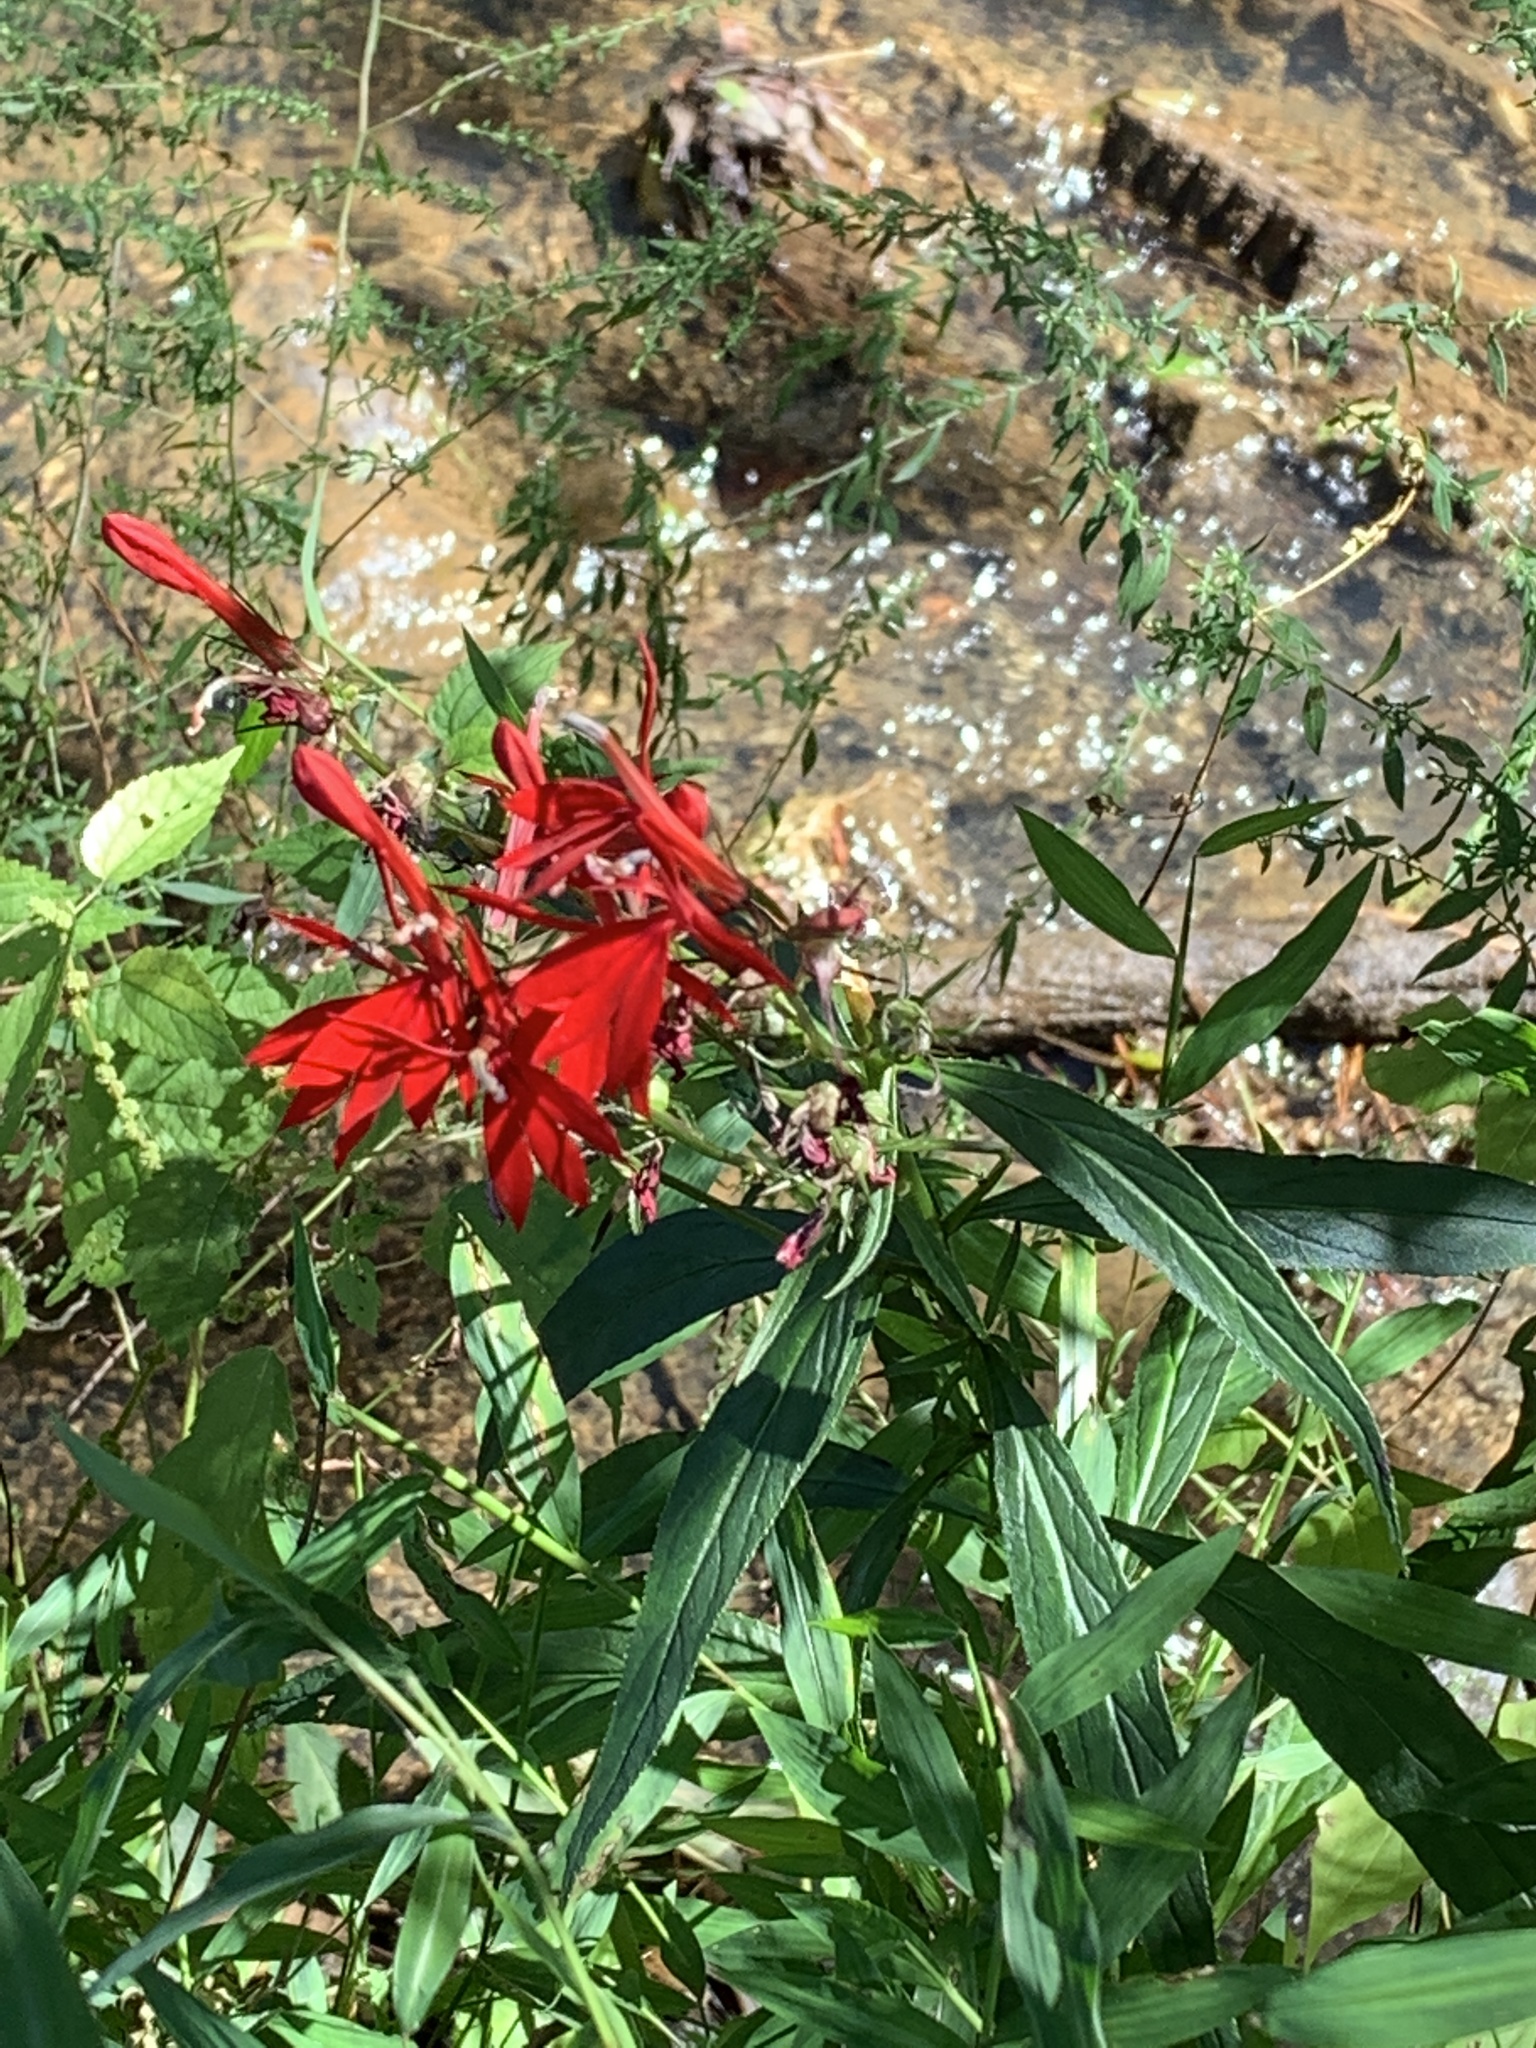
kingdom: Plantae
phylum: Tracheophyta
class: Magnoliopsida
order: Asterales
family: Campanulaceae
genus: Lobelia
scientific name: Lobelia cardinalis
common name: Cardinal flower
